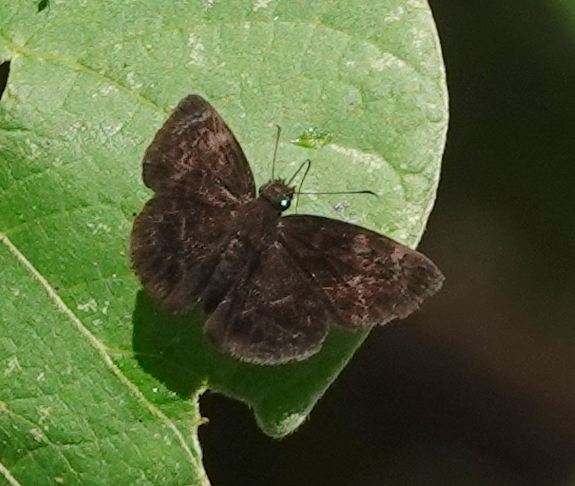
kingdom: Animalia
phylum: Arthropoda
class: Insecta
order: Lepidoptera
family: Hesperiidae
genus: Ouleus
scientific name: Ouleus fridericus
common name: Fridericus spreadwing
